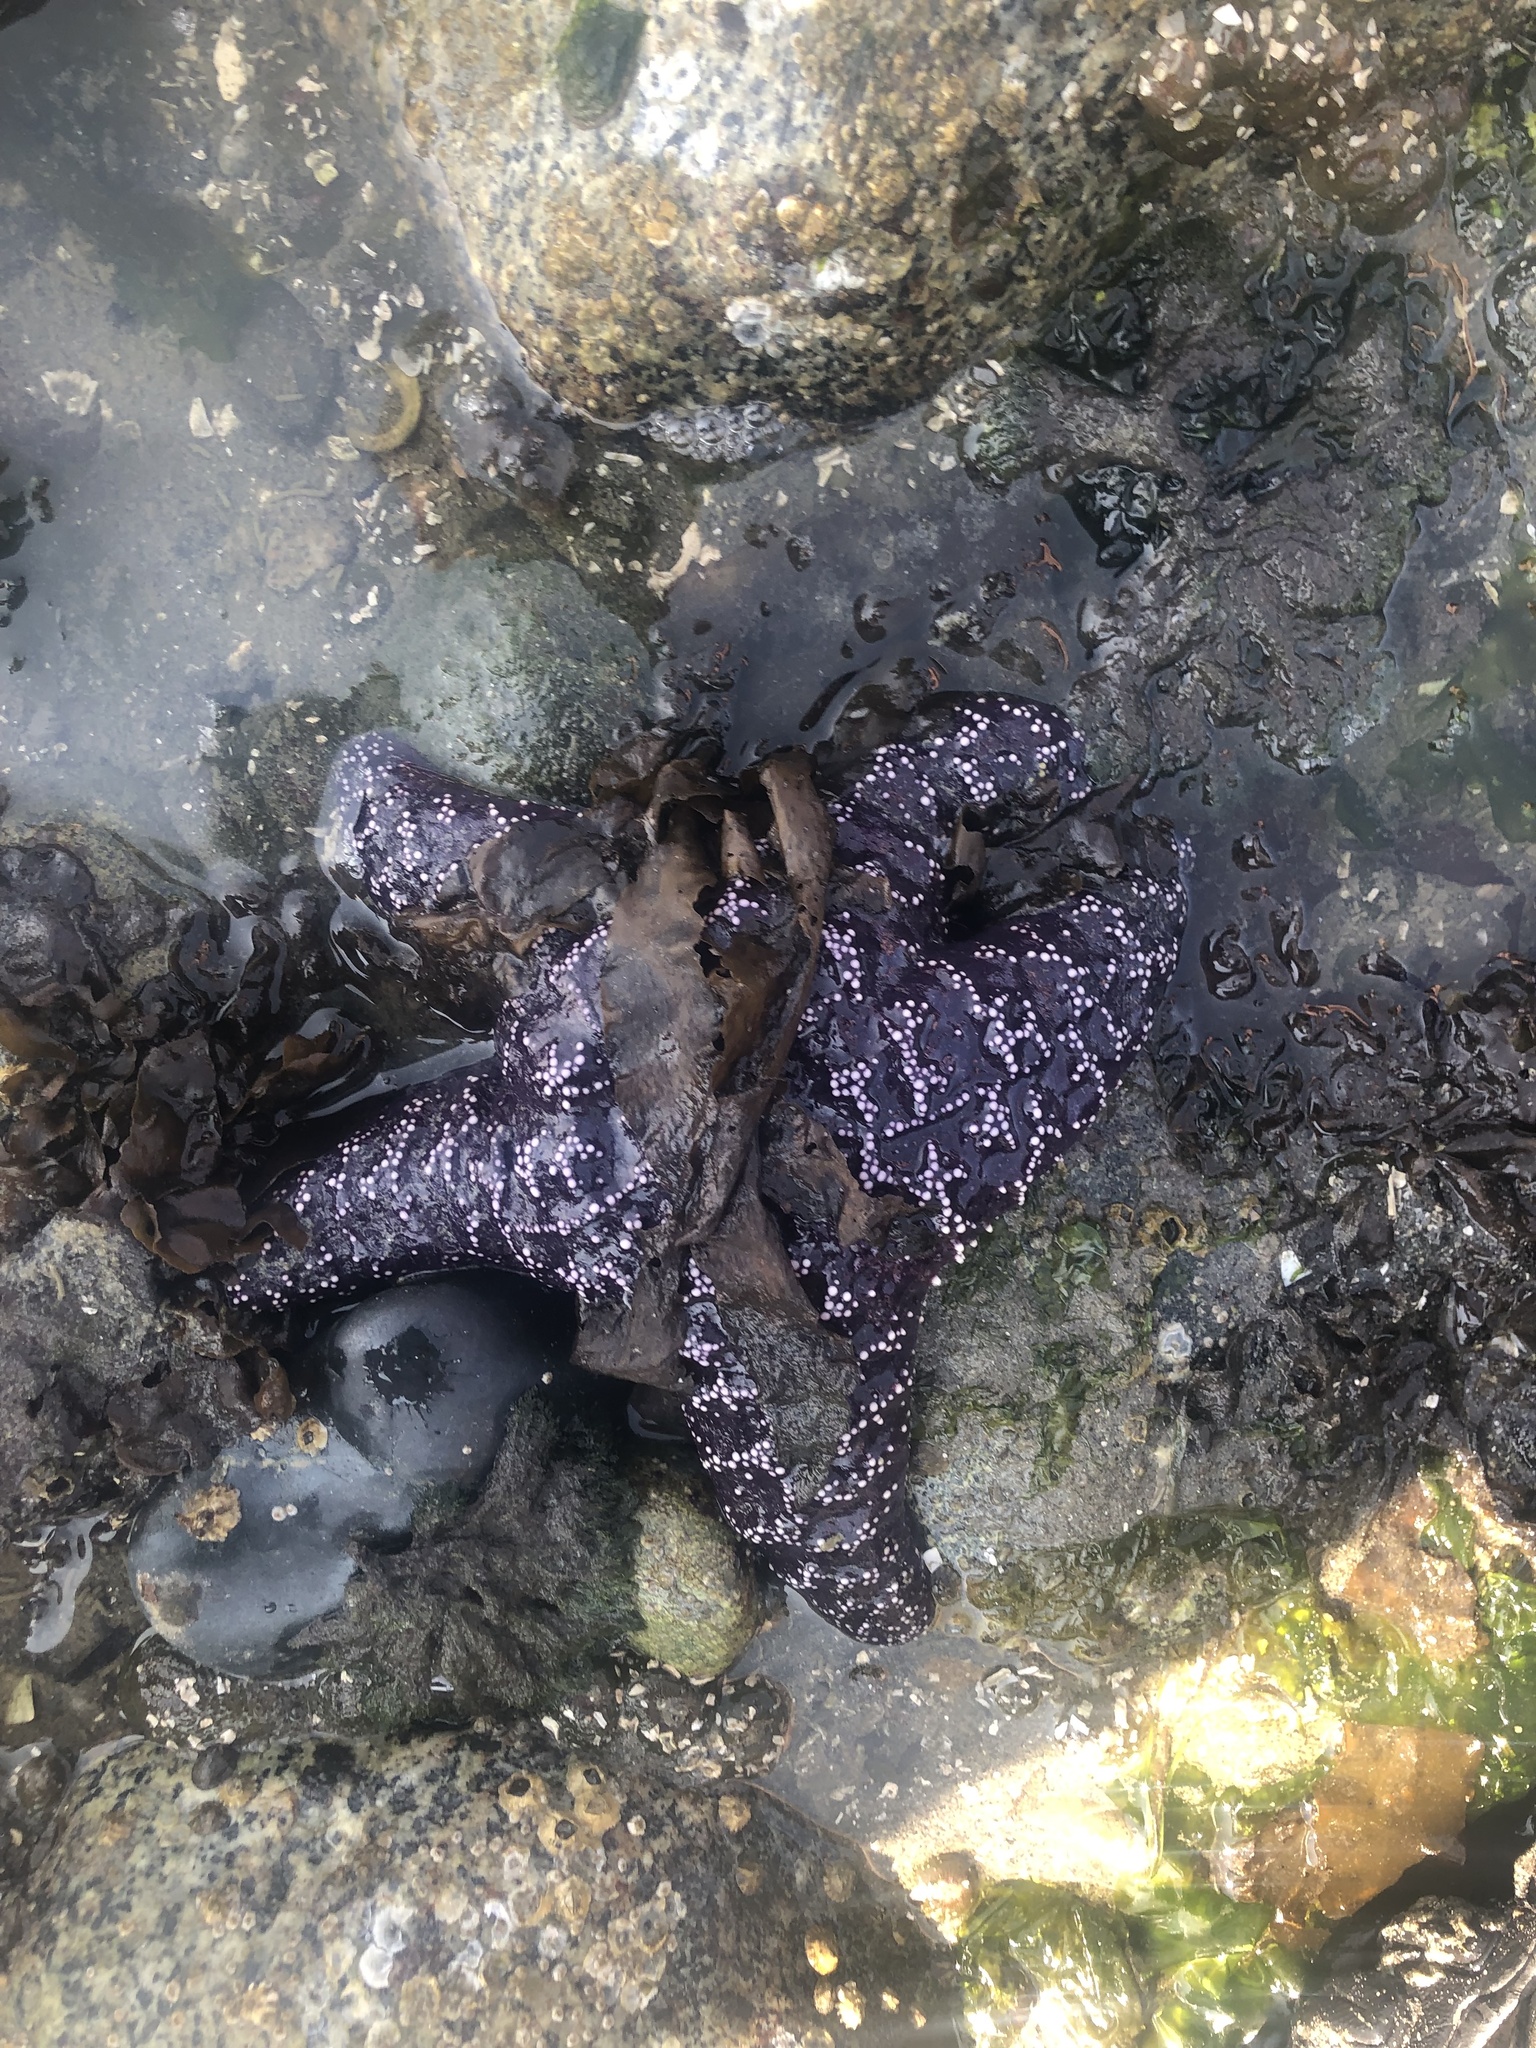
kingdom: Animalia
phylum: Echinodermata
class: Asteroidea
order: Forcipulatida
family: Asteriidae
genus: Pisaster
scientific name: Pisaster ochraceus
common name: Ochre stars
